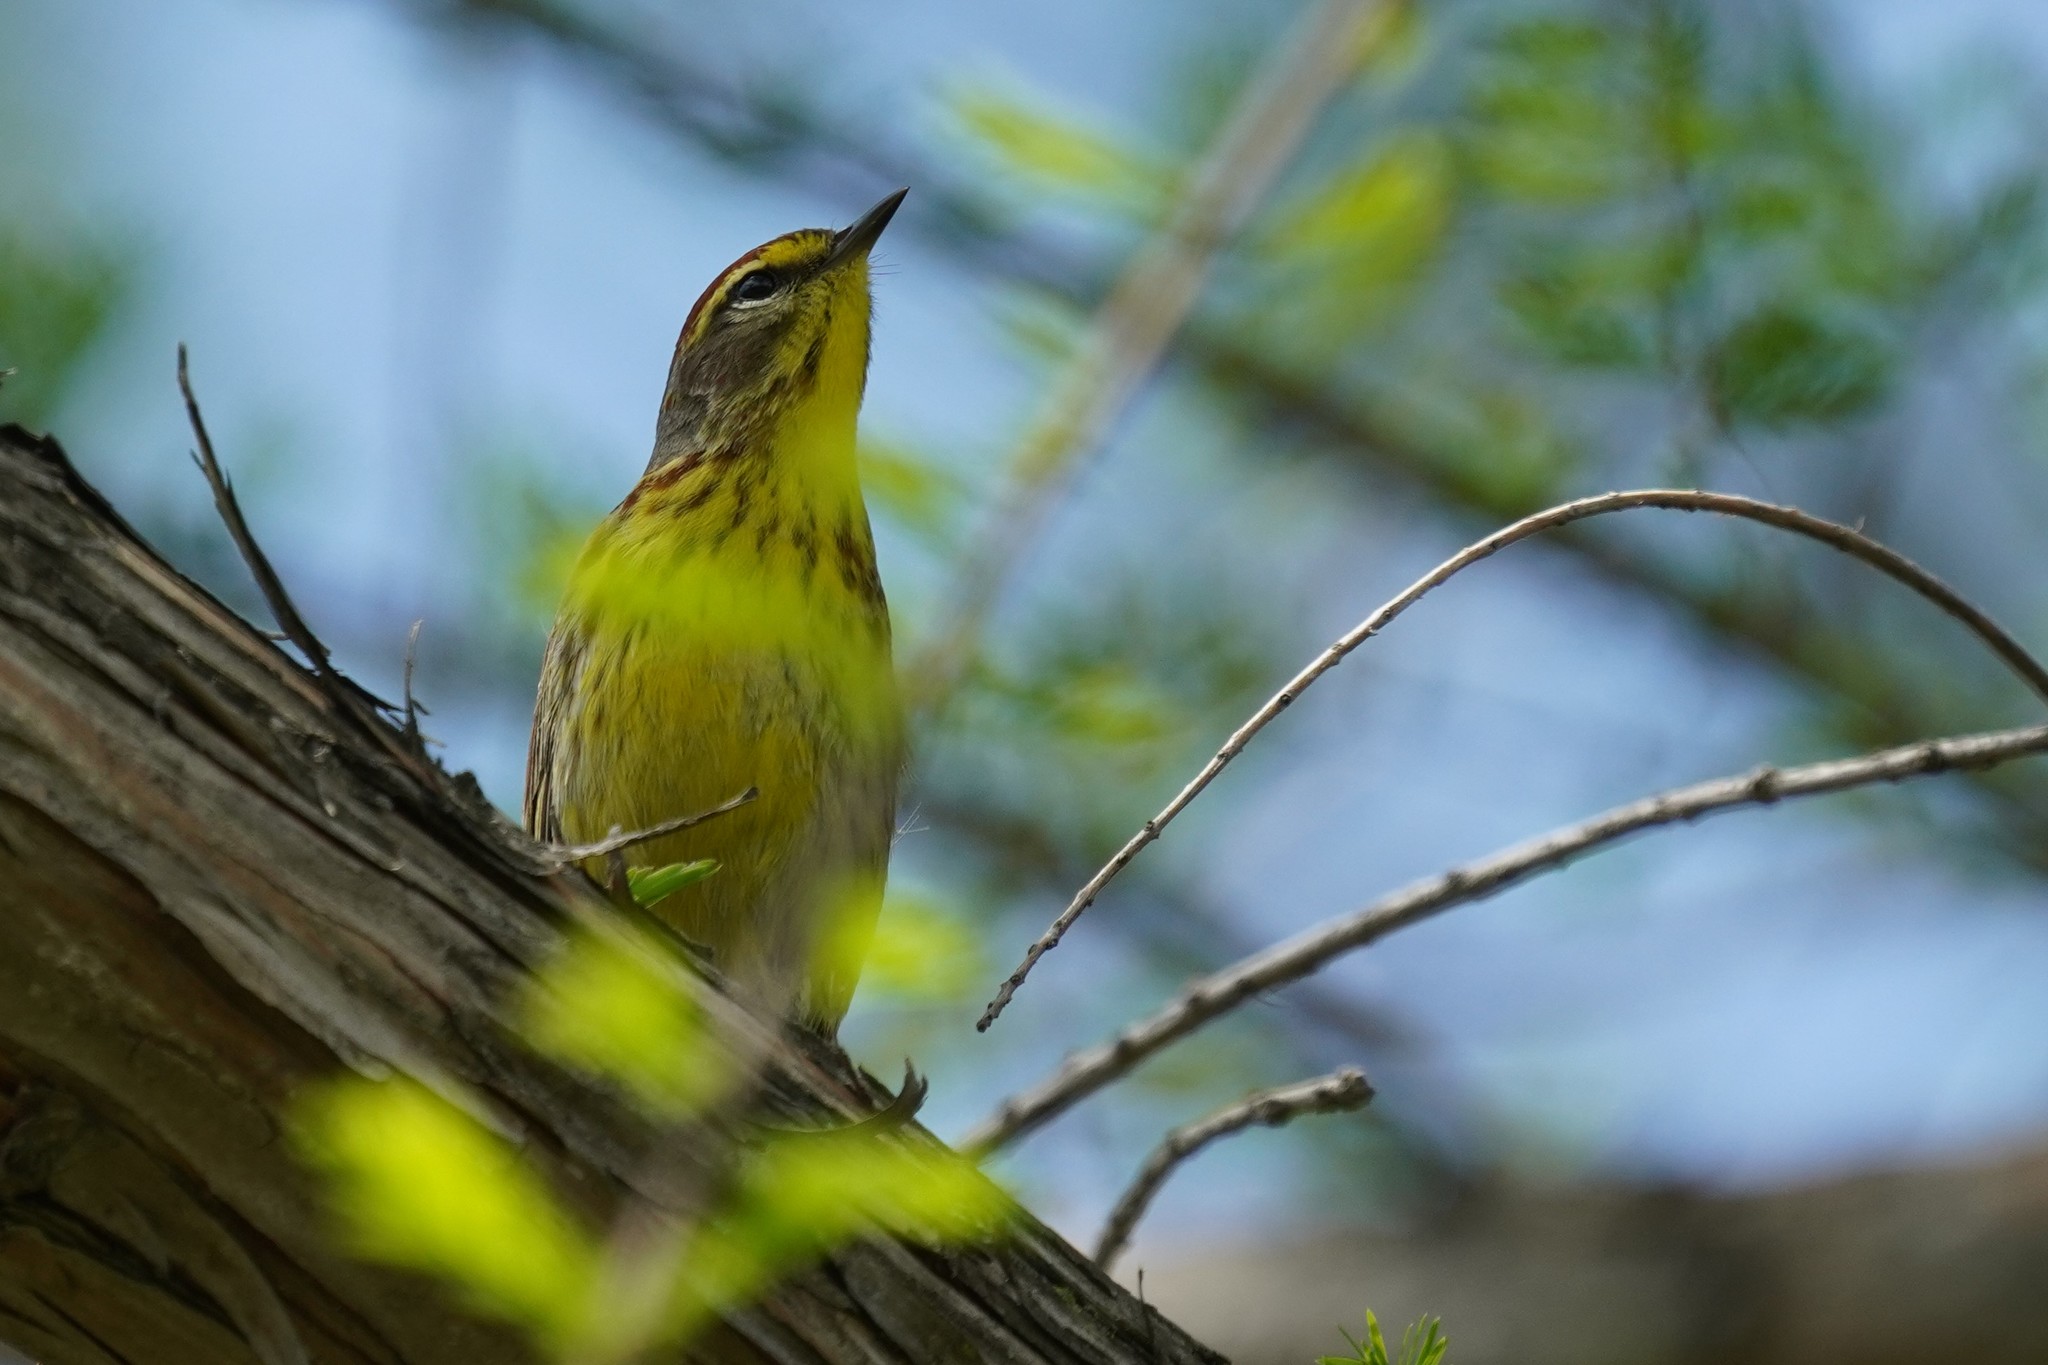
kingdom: Animalia
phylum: Chordata
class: Aves
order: Passeriformes
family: Parulidae
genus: Setophaga
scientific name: Setophaga palmarum
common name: Palm warbler
